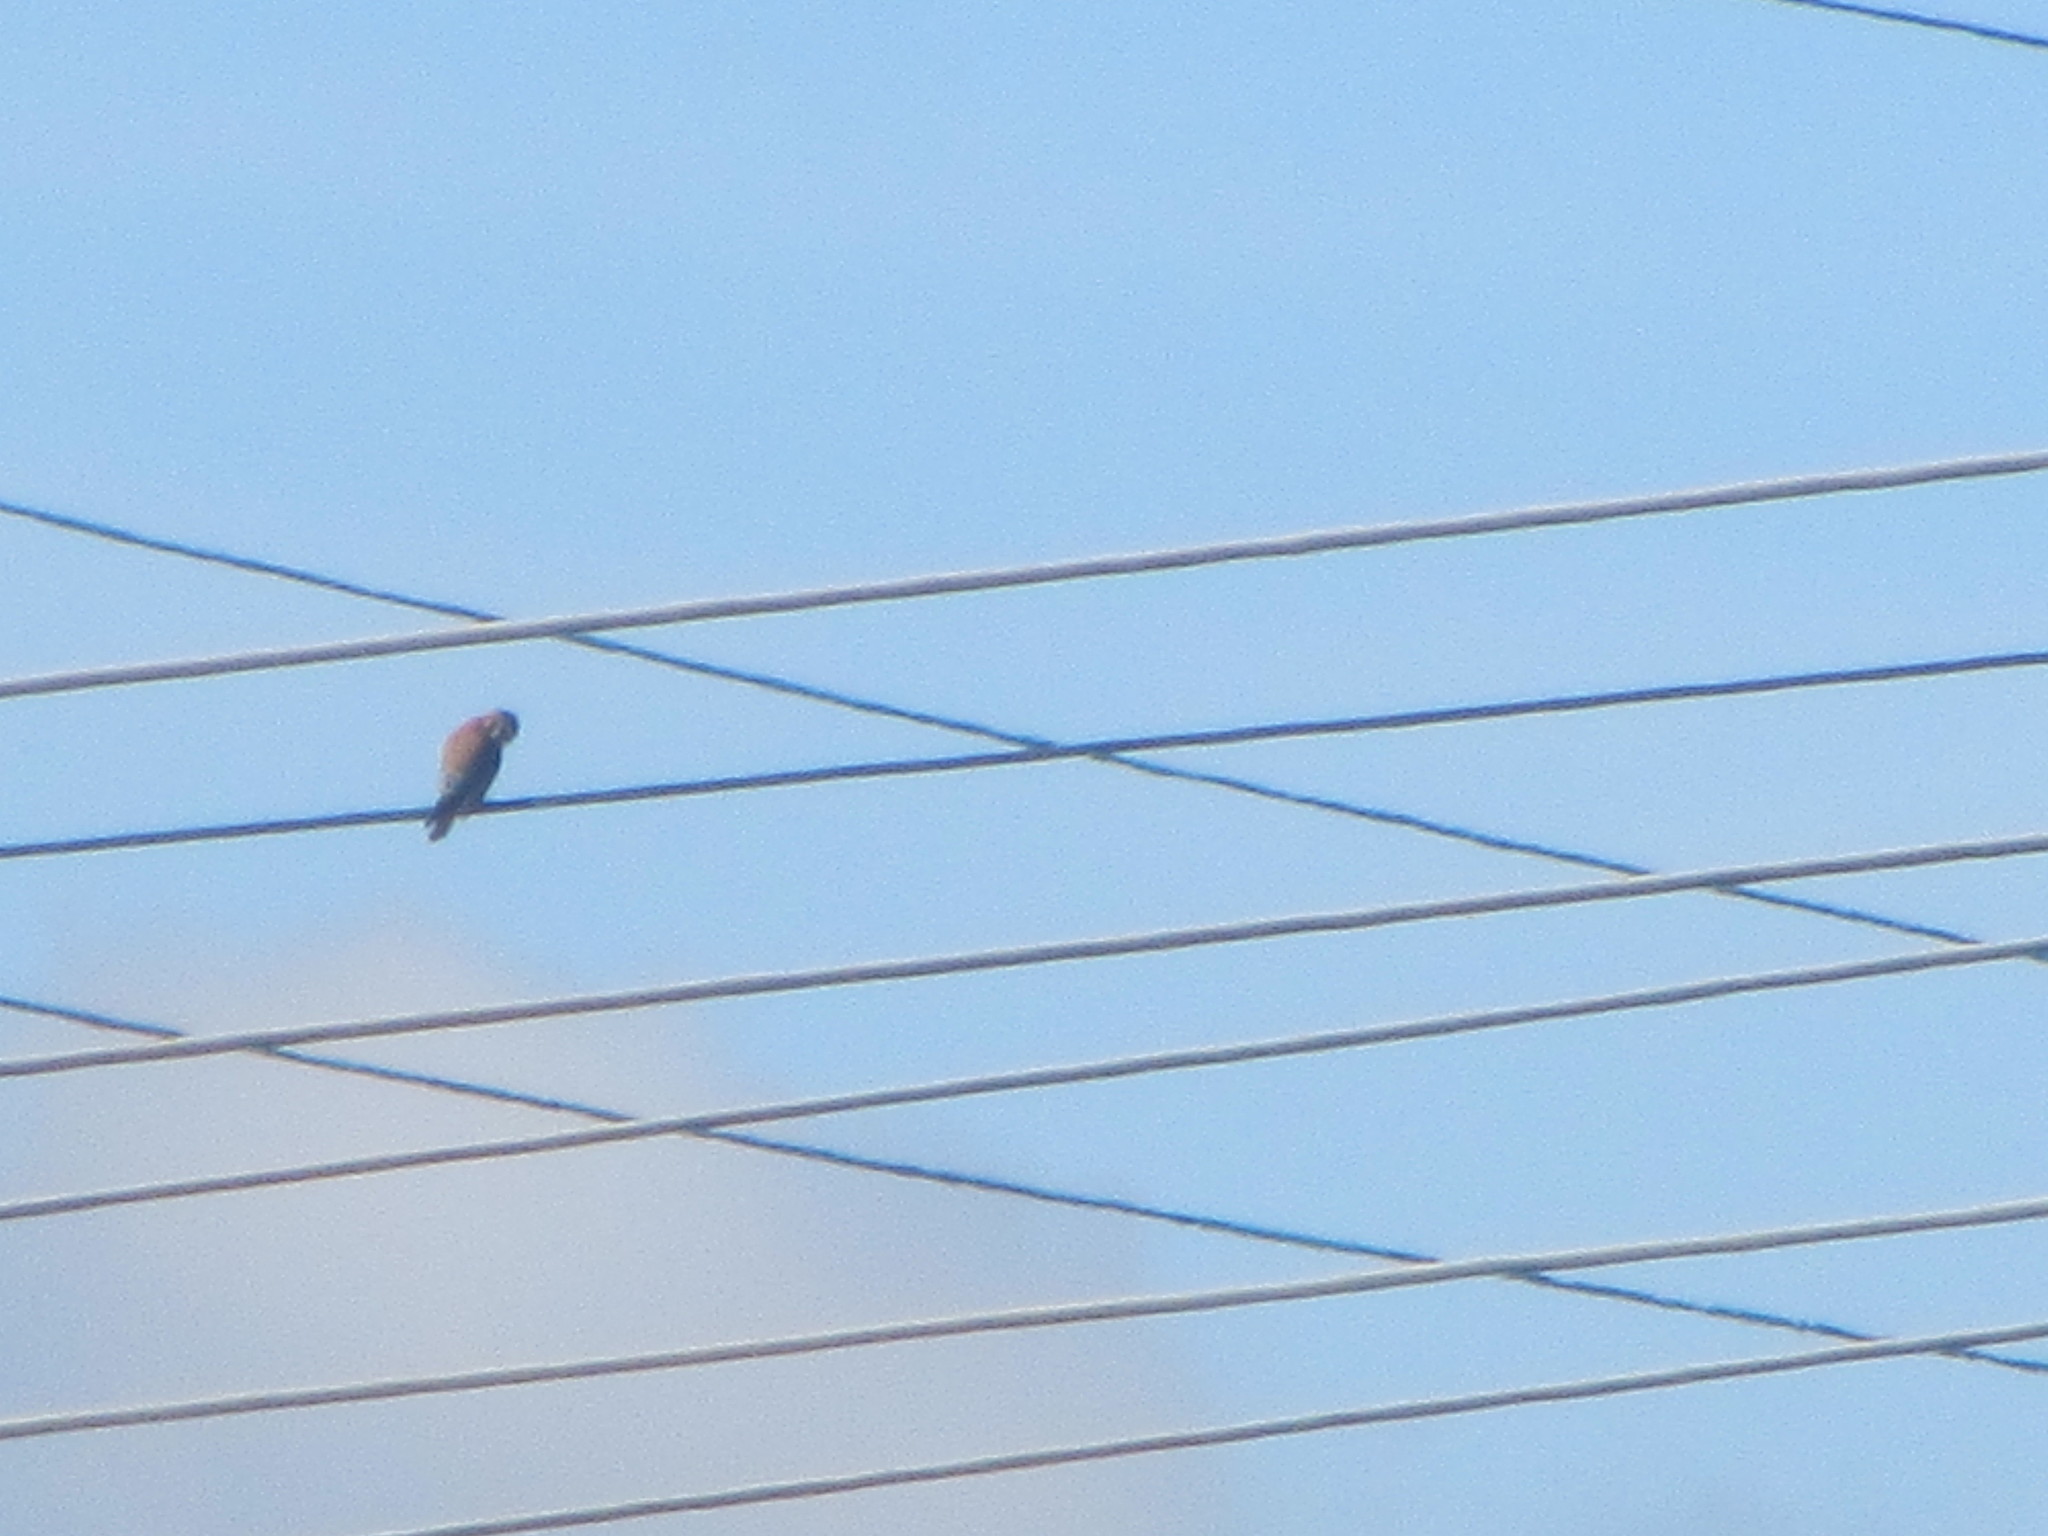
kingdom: Animalia
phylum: Chordata
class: Aves
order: Falconiformes
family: Falconidae
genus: Falco
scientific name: Falco sparverius
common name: American kestrel
